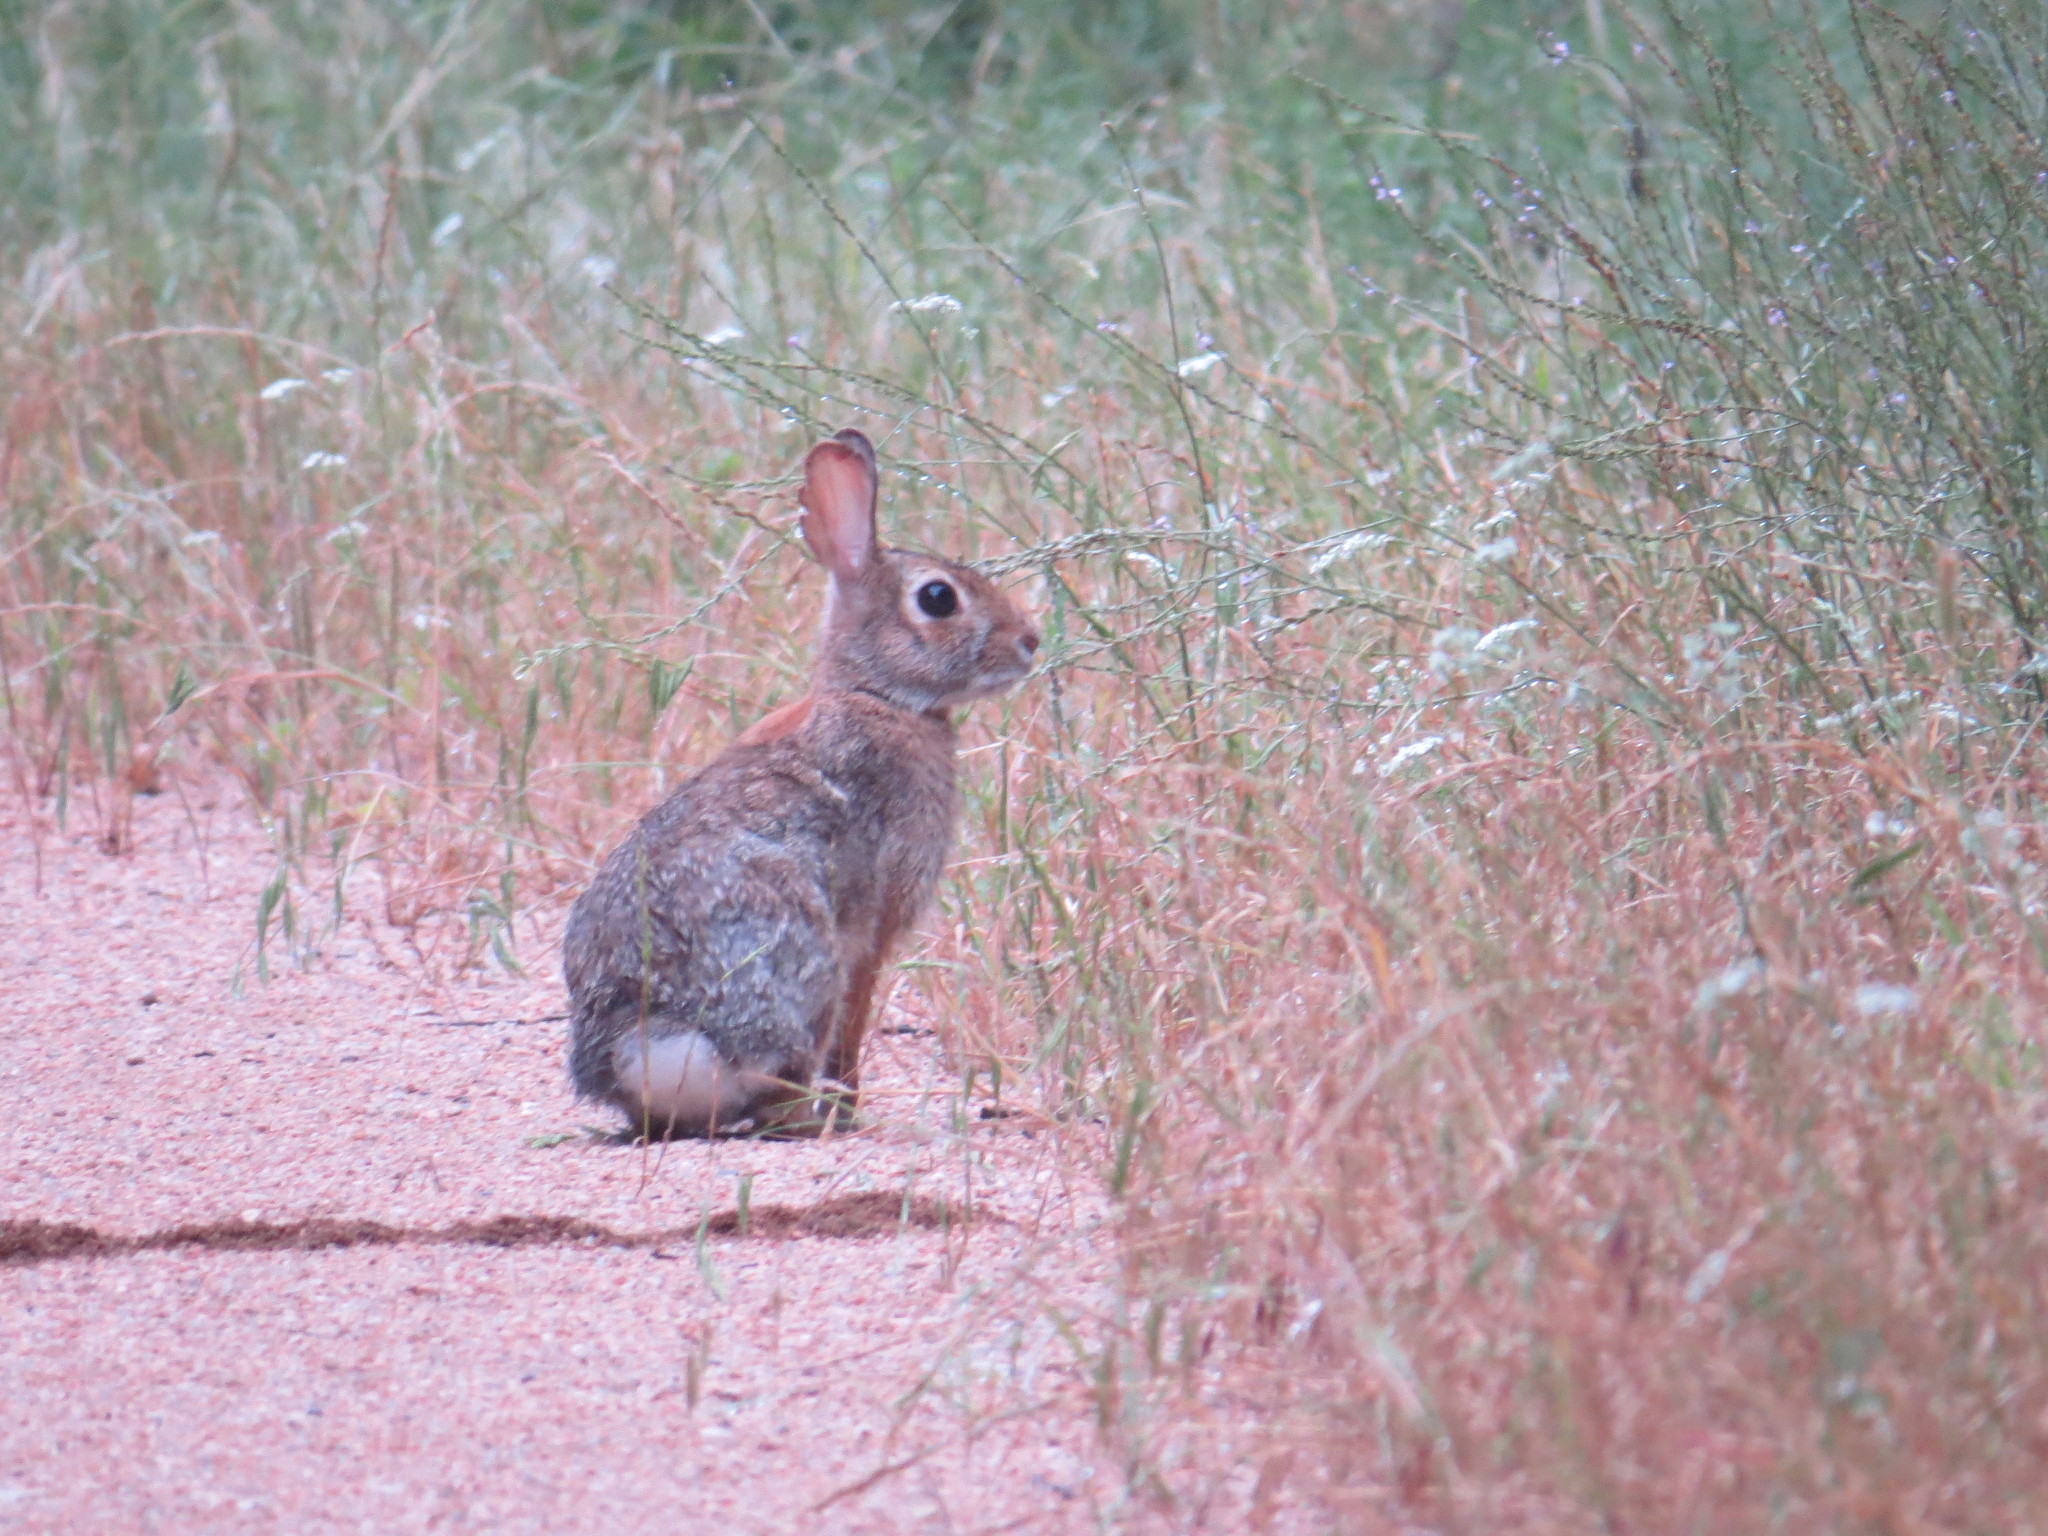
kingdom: Animalia
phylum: Chordata
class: Mammalia
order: Lagomorpha
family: Leporidae
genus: Sylvilagus
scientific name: Sylvilagus floridanus
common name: Eastern cottontail
